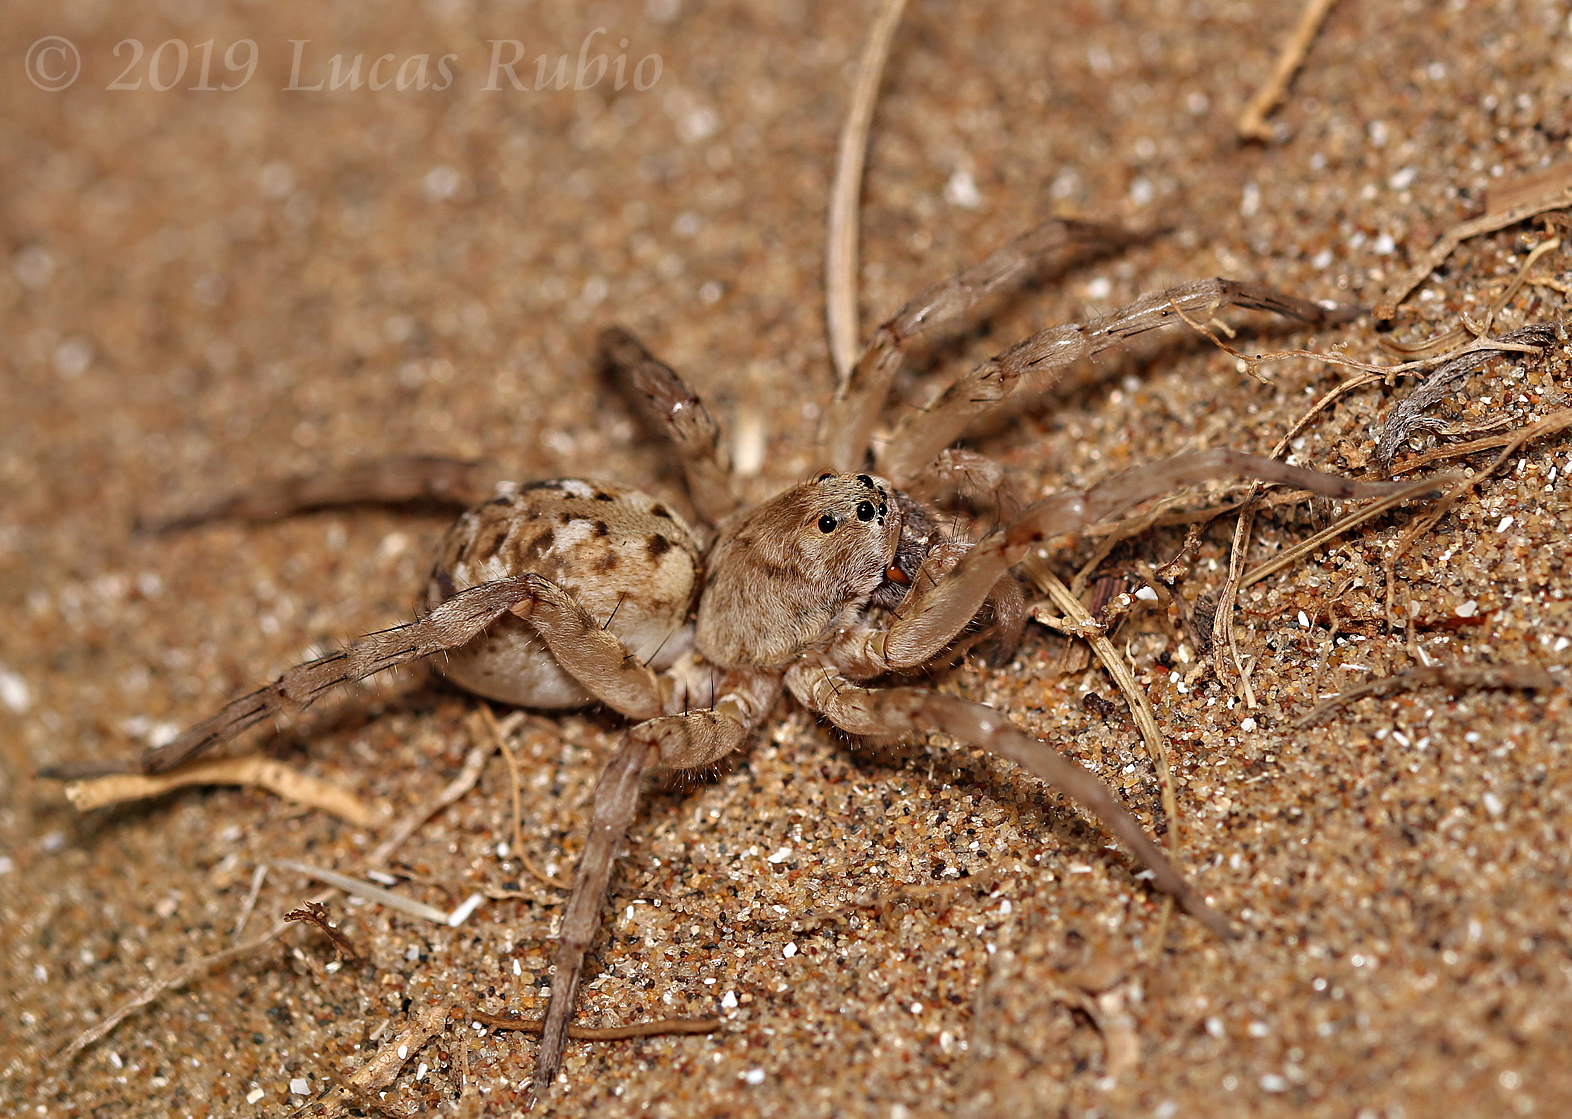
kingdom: Animalia
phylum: Arthropoda
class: Arachnida
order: Araneae
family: Lycosidae
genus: Allocosa
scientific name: Allocosa senex
